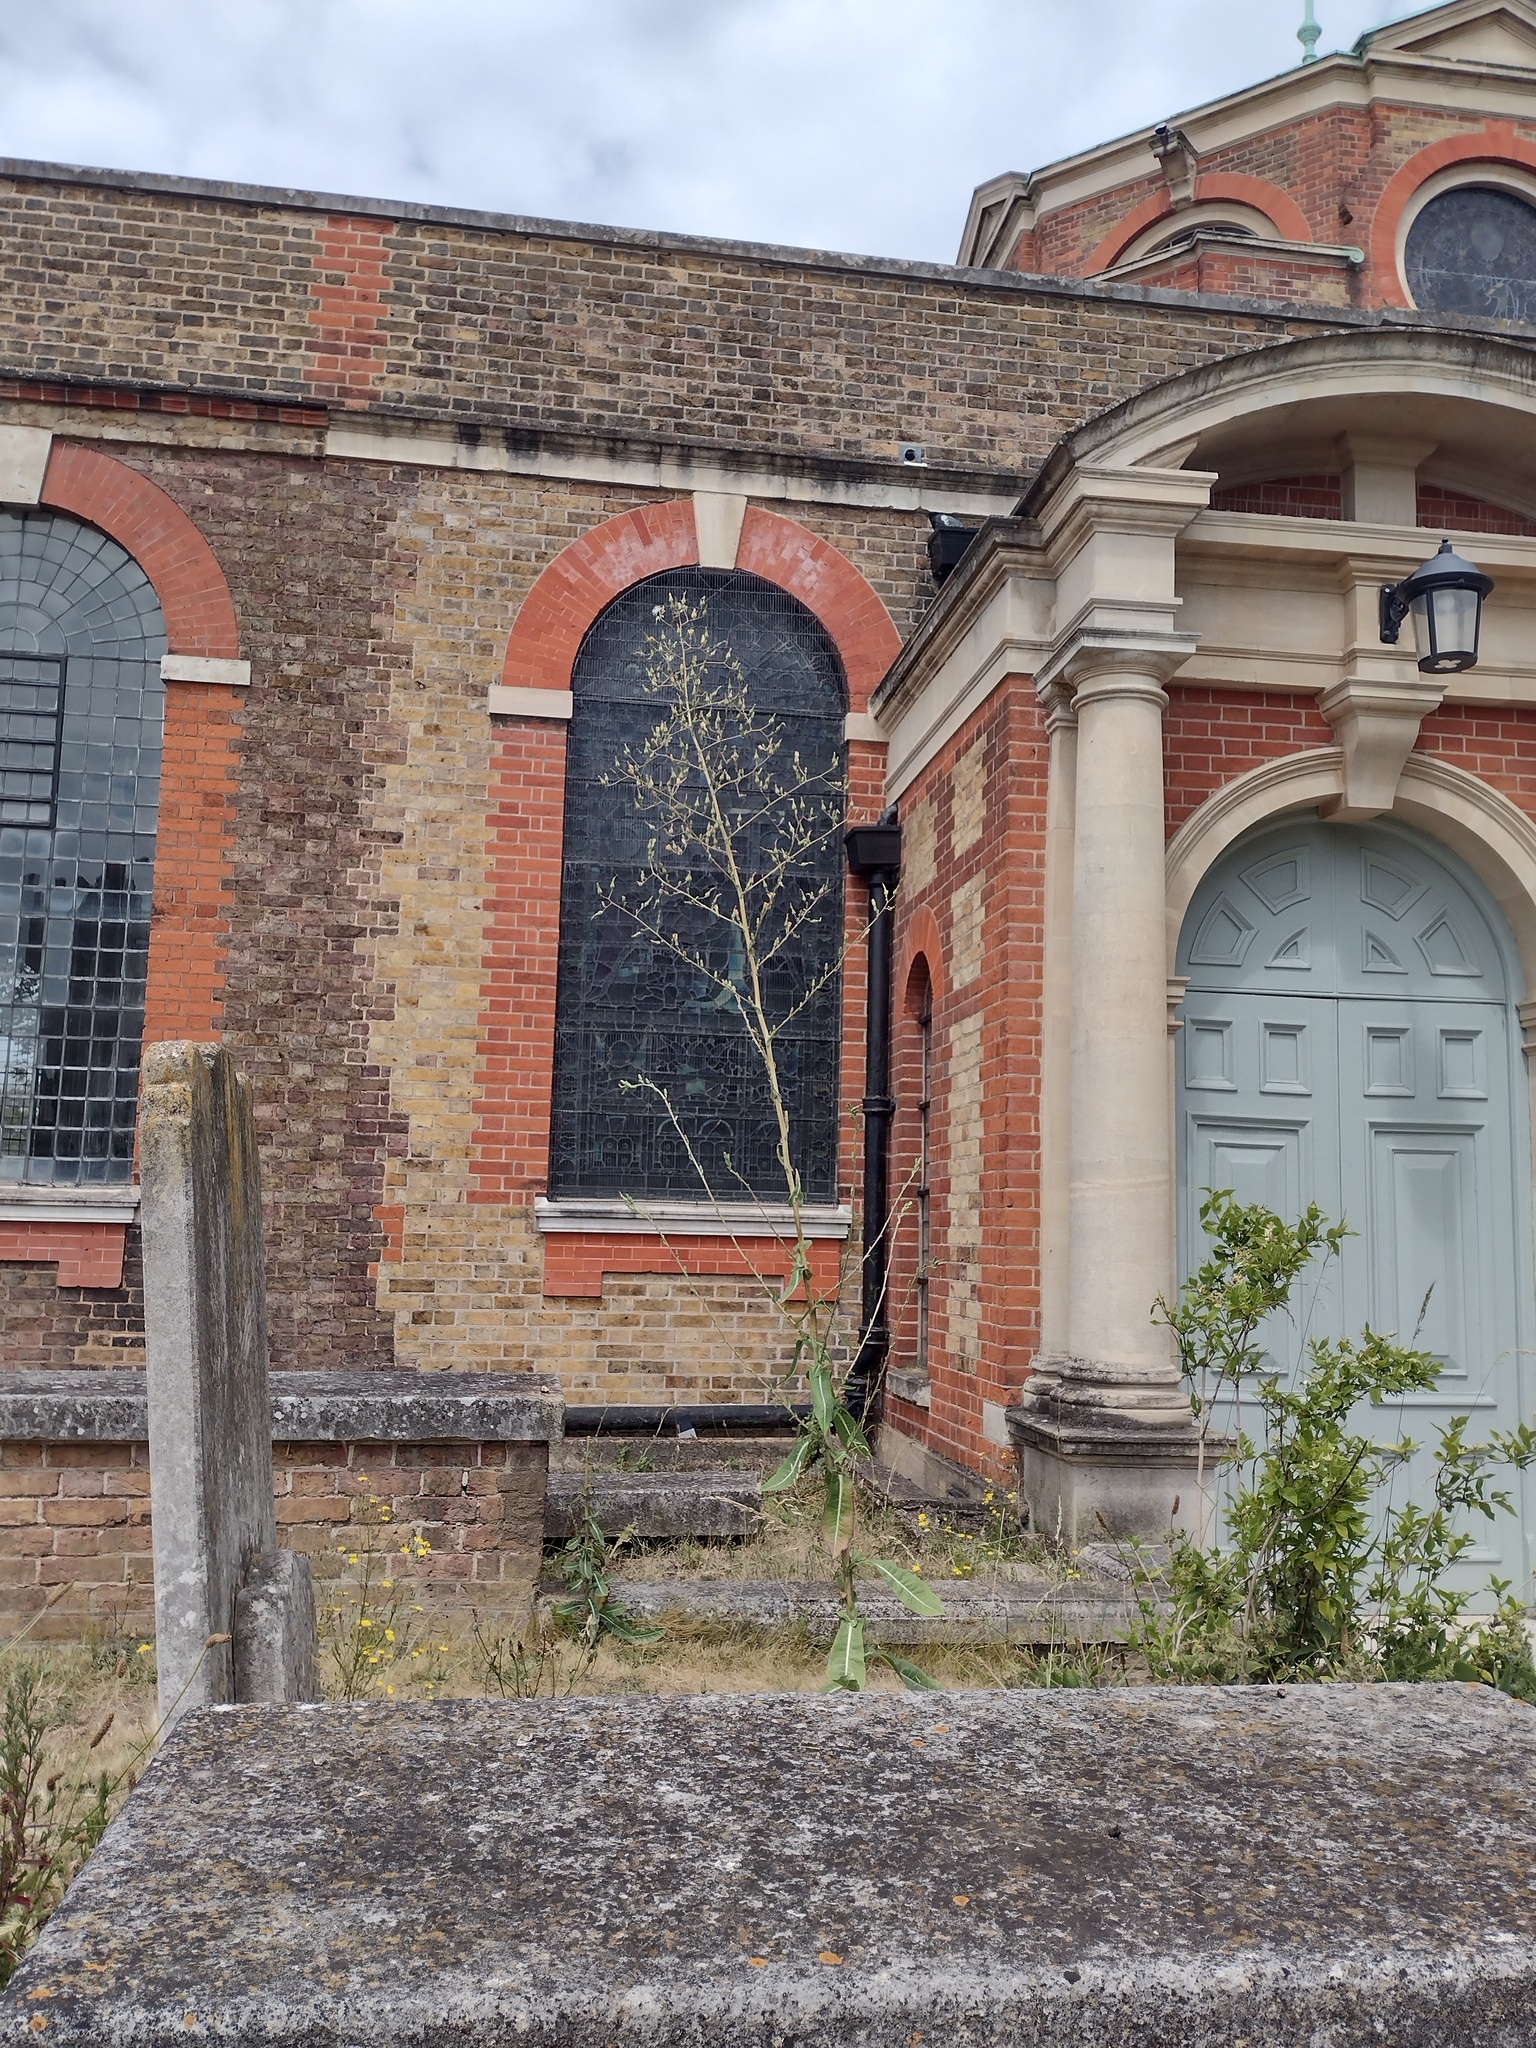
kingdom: Plantae
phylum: Tracheophyta
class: Magnoliopsida
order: Asterales
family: Asteraceae
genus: Lactuca
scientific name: Lactuca virosa
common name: Great lettuce
